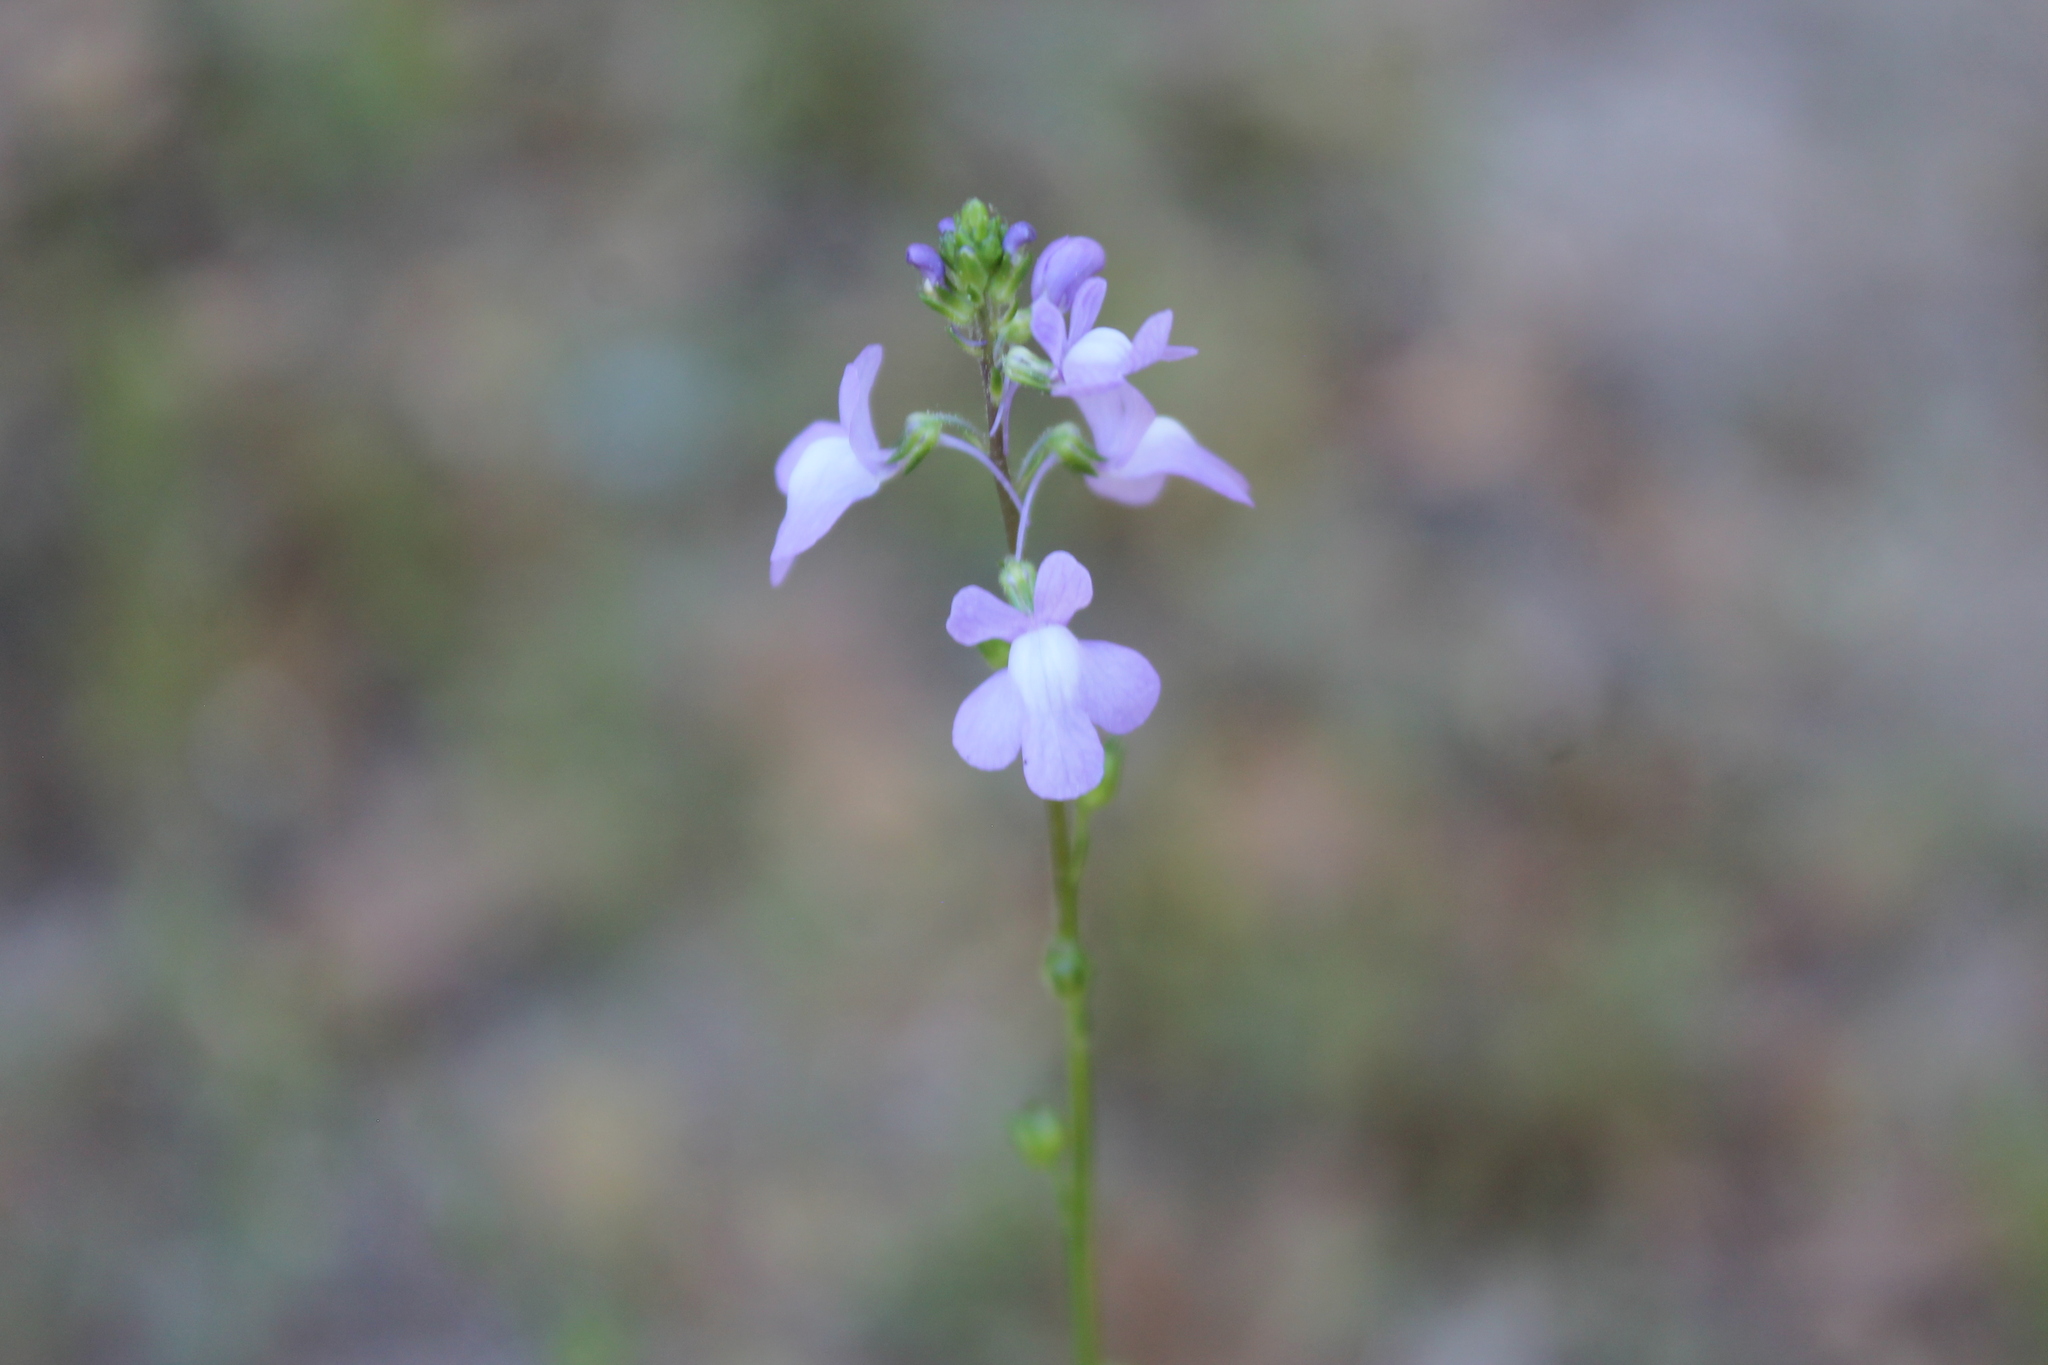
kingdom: Plantae
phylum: Tracheophyta
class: Magnoliopsida
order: Lamiales
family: Plantaginaceae
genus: Nuttallanthus
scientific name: Nuttallanthus canadensis
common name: Blue toadflax
